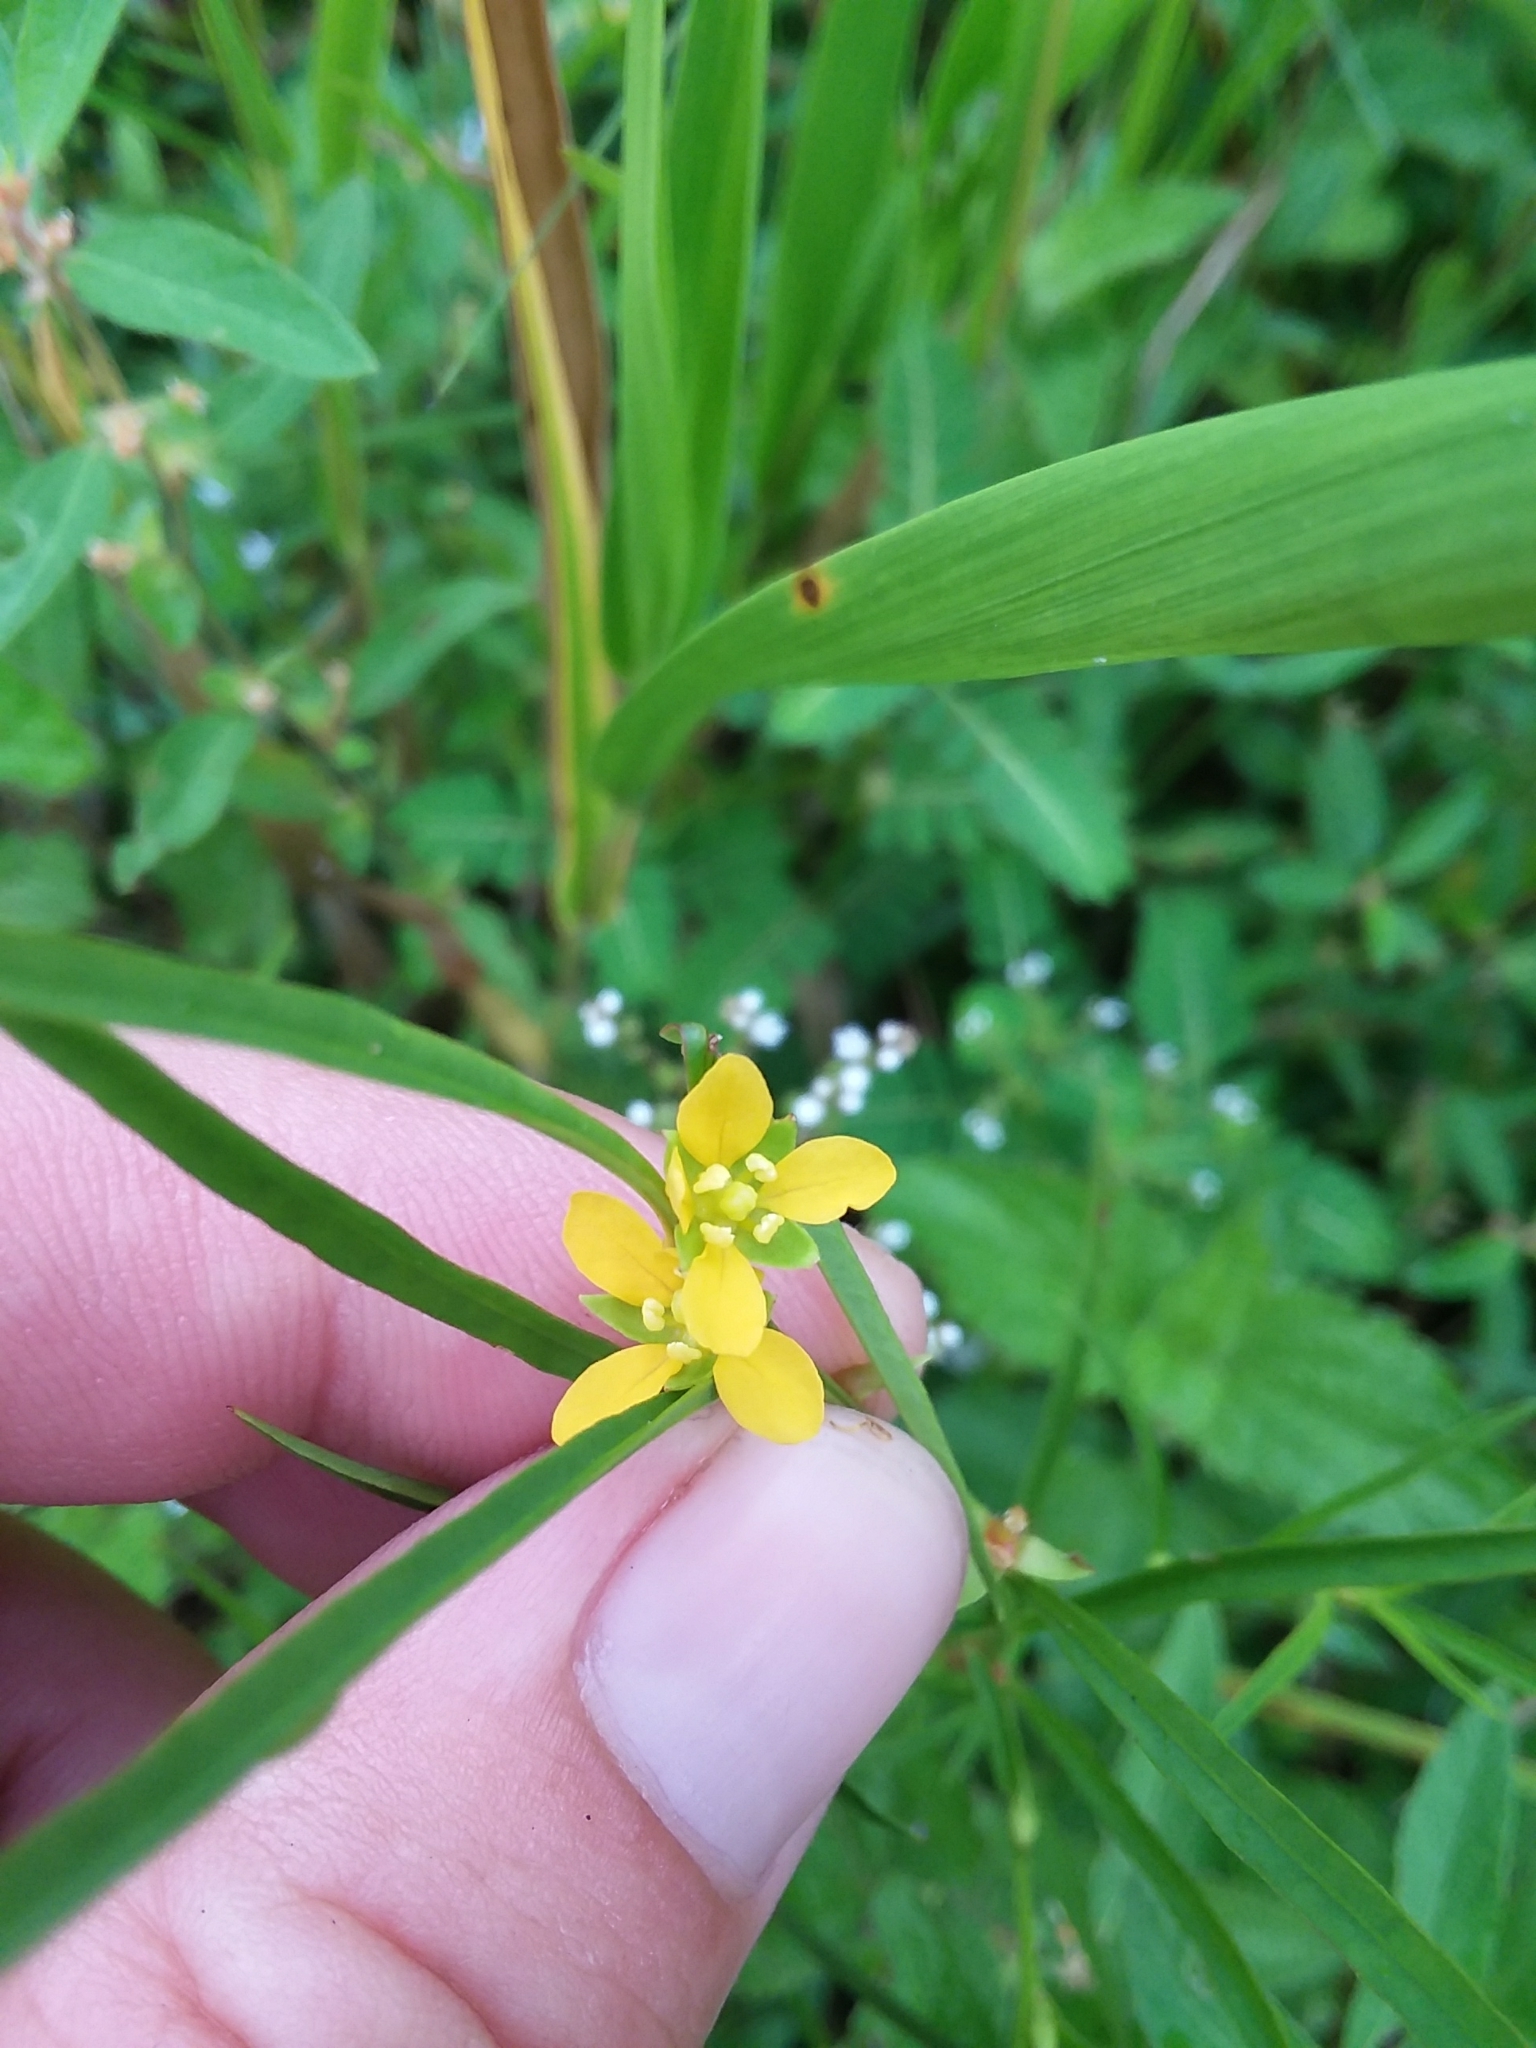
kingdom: Plantae
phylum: Tracheophyta
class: Magnoliopsida
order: Myrtales
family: Onagraceae
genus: Ludwigia
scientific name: Ludwigia linearis
